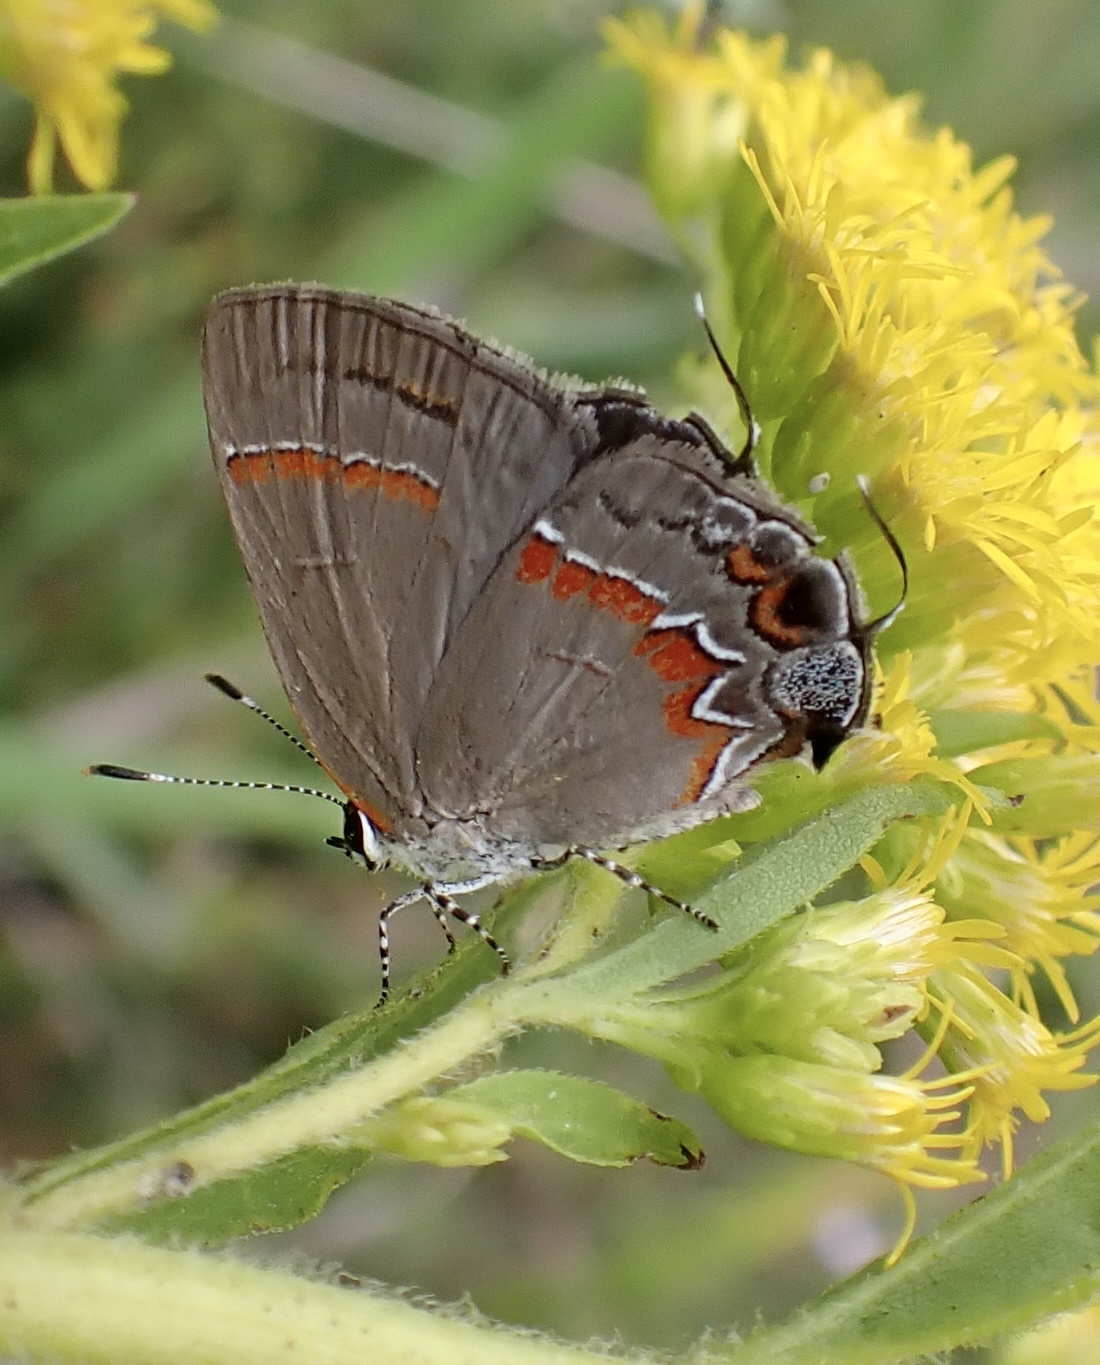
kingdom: Animalia
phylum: Arthropoda
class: Insecta
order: Lepidoptera
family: Lycaenidae
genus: Calycopis
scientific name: Calycopis cecrops
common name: Red-banded hairstreak
